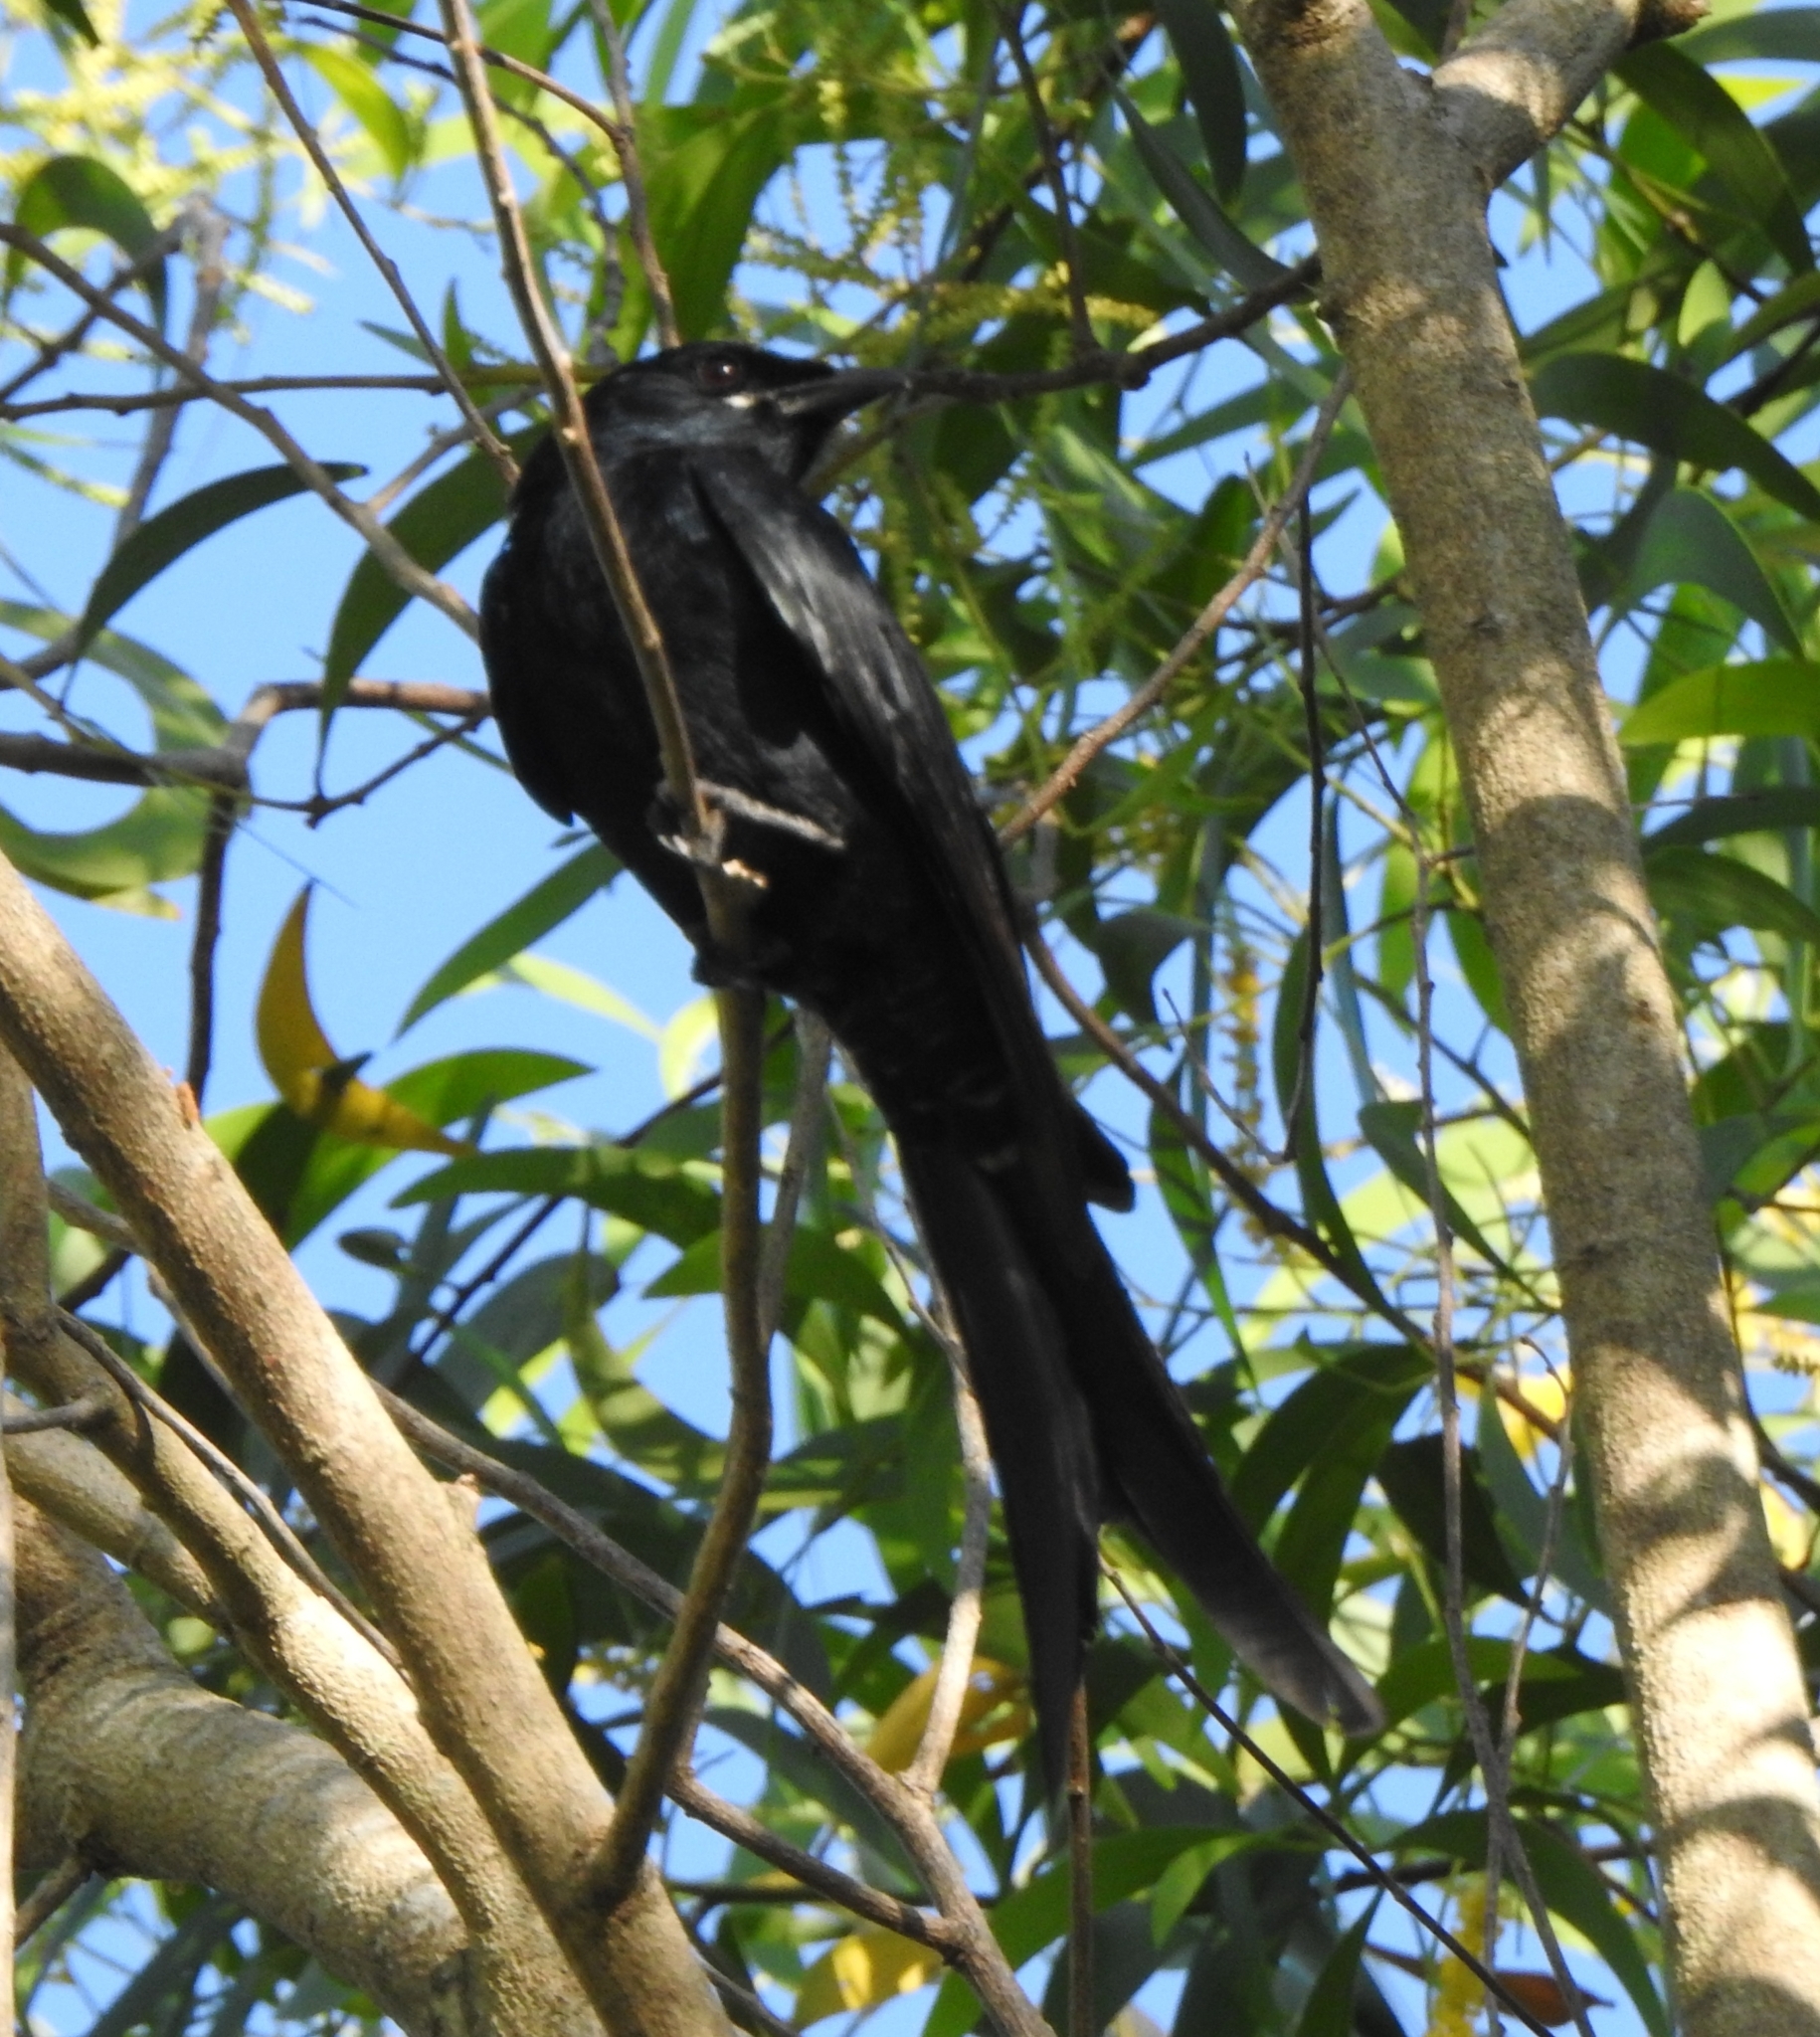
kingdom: Animalia
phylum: Chordata
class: Aves
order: Passeriformes
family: Dicruridae
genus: Dicrurus
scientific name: Dicrurus macrocercus
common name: Black drongo
